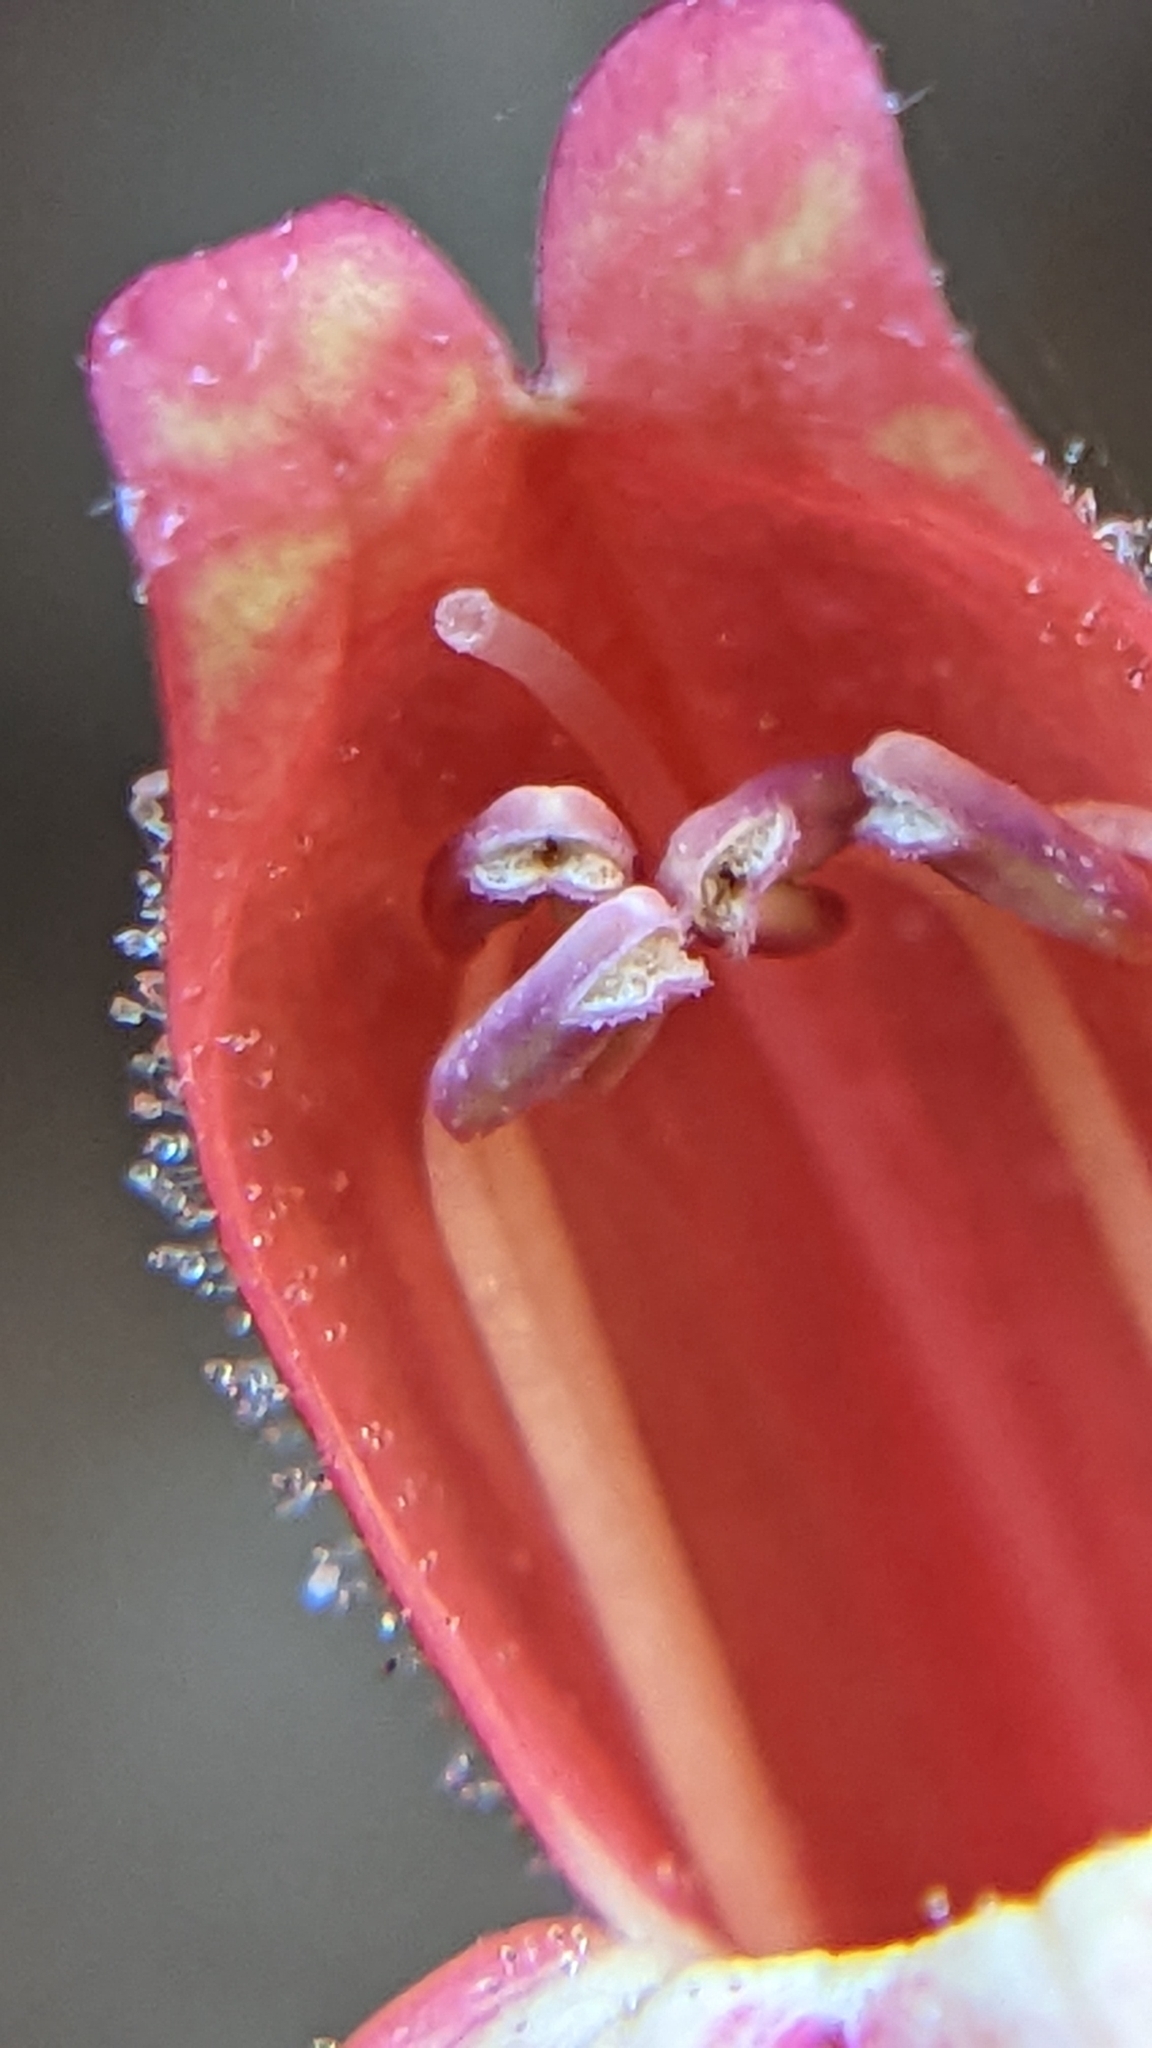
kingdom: Plantae
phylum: Tracheophyta
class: Magnoliopsida
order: Lamiales
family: Plantaginaceae
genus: Penstemon
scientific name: Penstemon rostriflorus
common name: Bridges's penstemon
